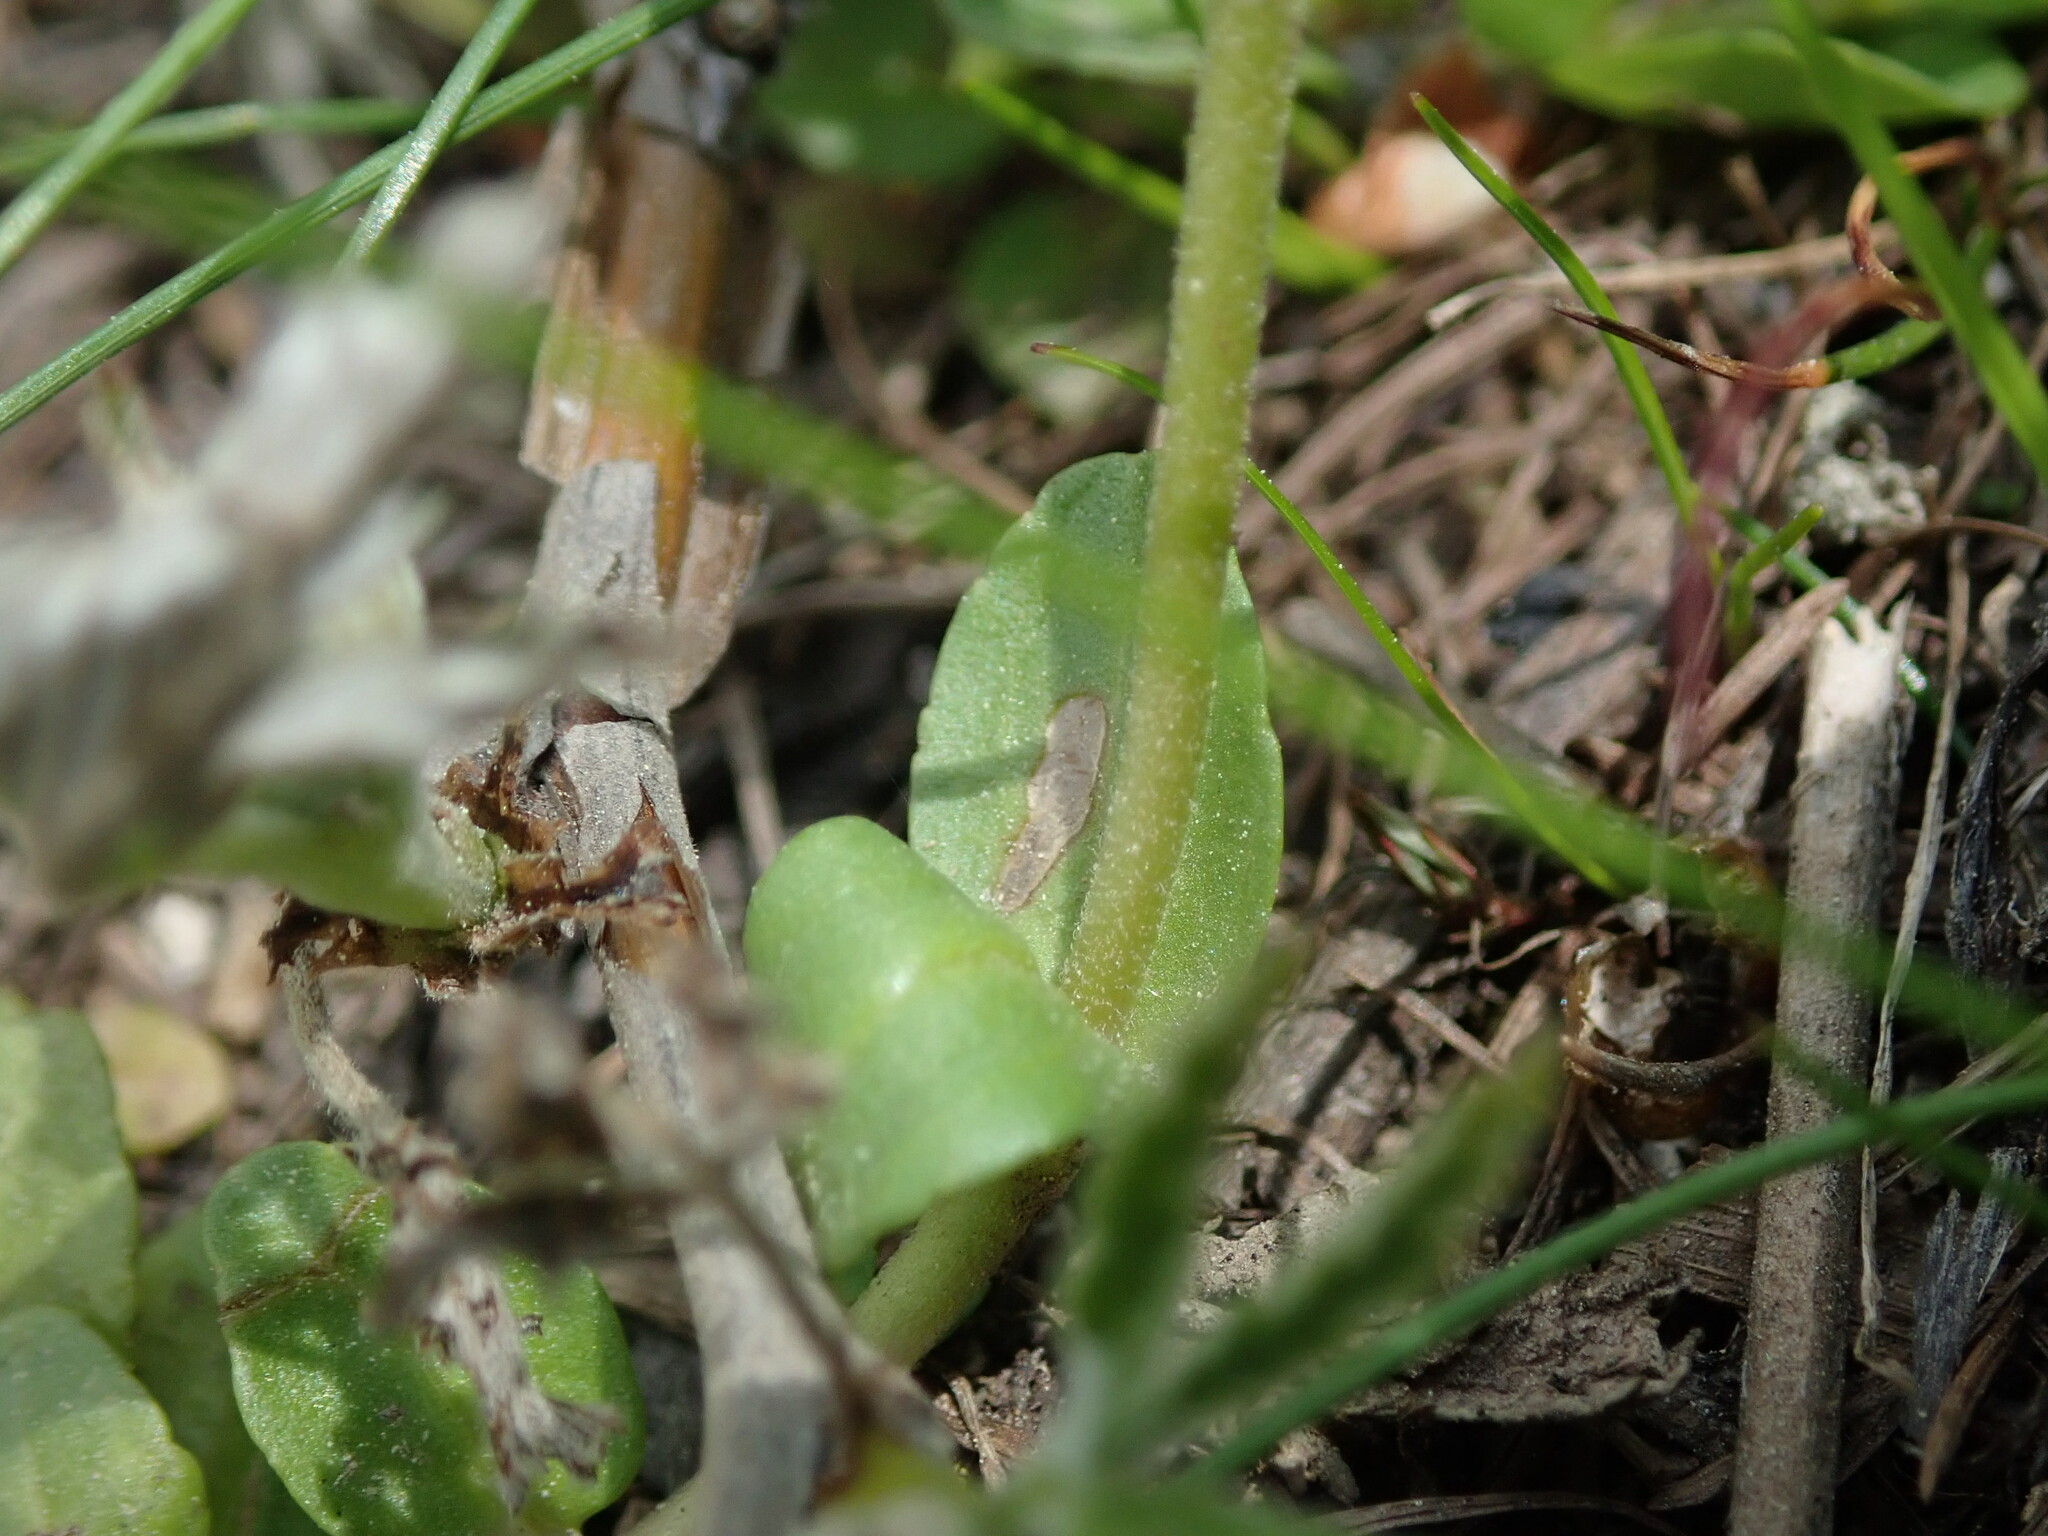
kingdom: Plantae
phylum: Tracheophyta
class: Magnoliopsida
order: Lamiales
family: Plantaginaceae
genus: Veronica
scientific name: Veronica serpyllifolia
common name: Thyme-leaved speedwell
